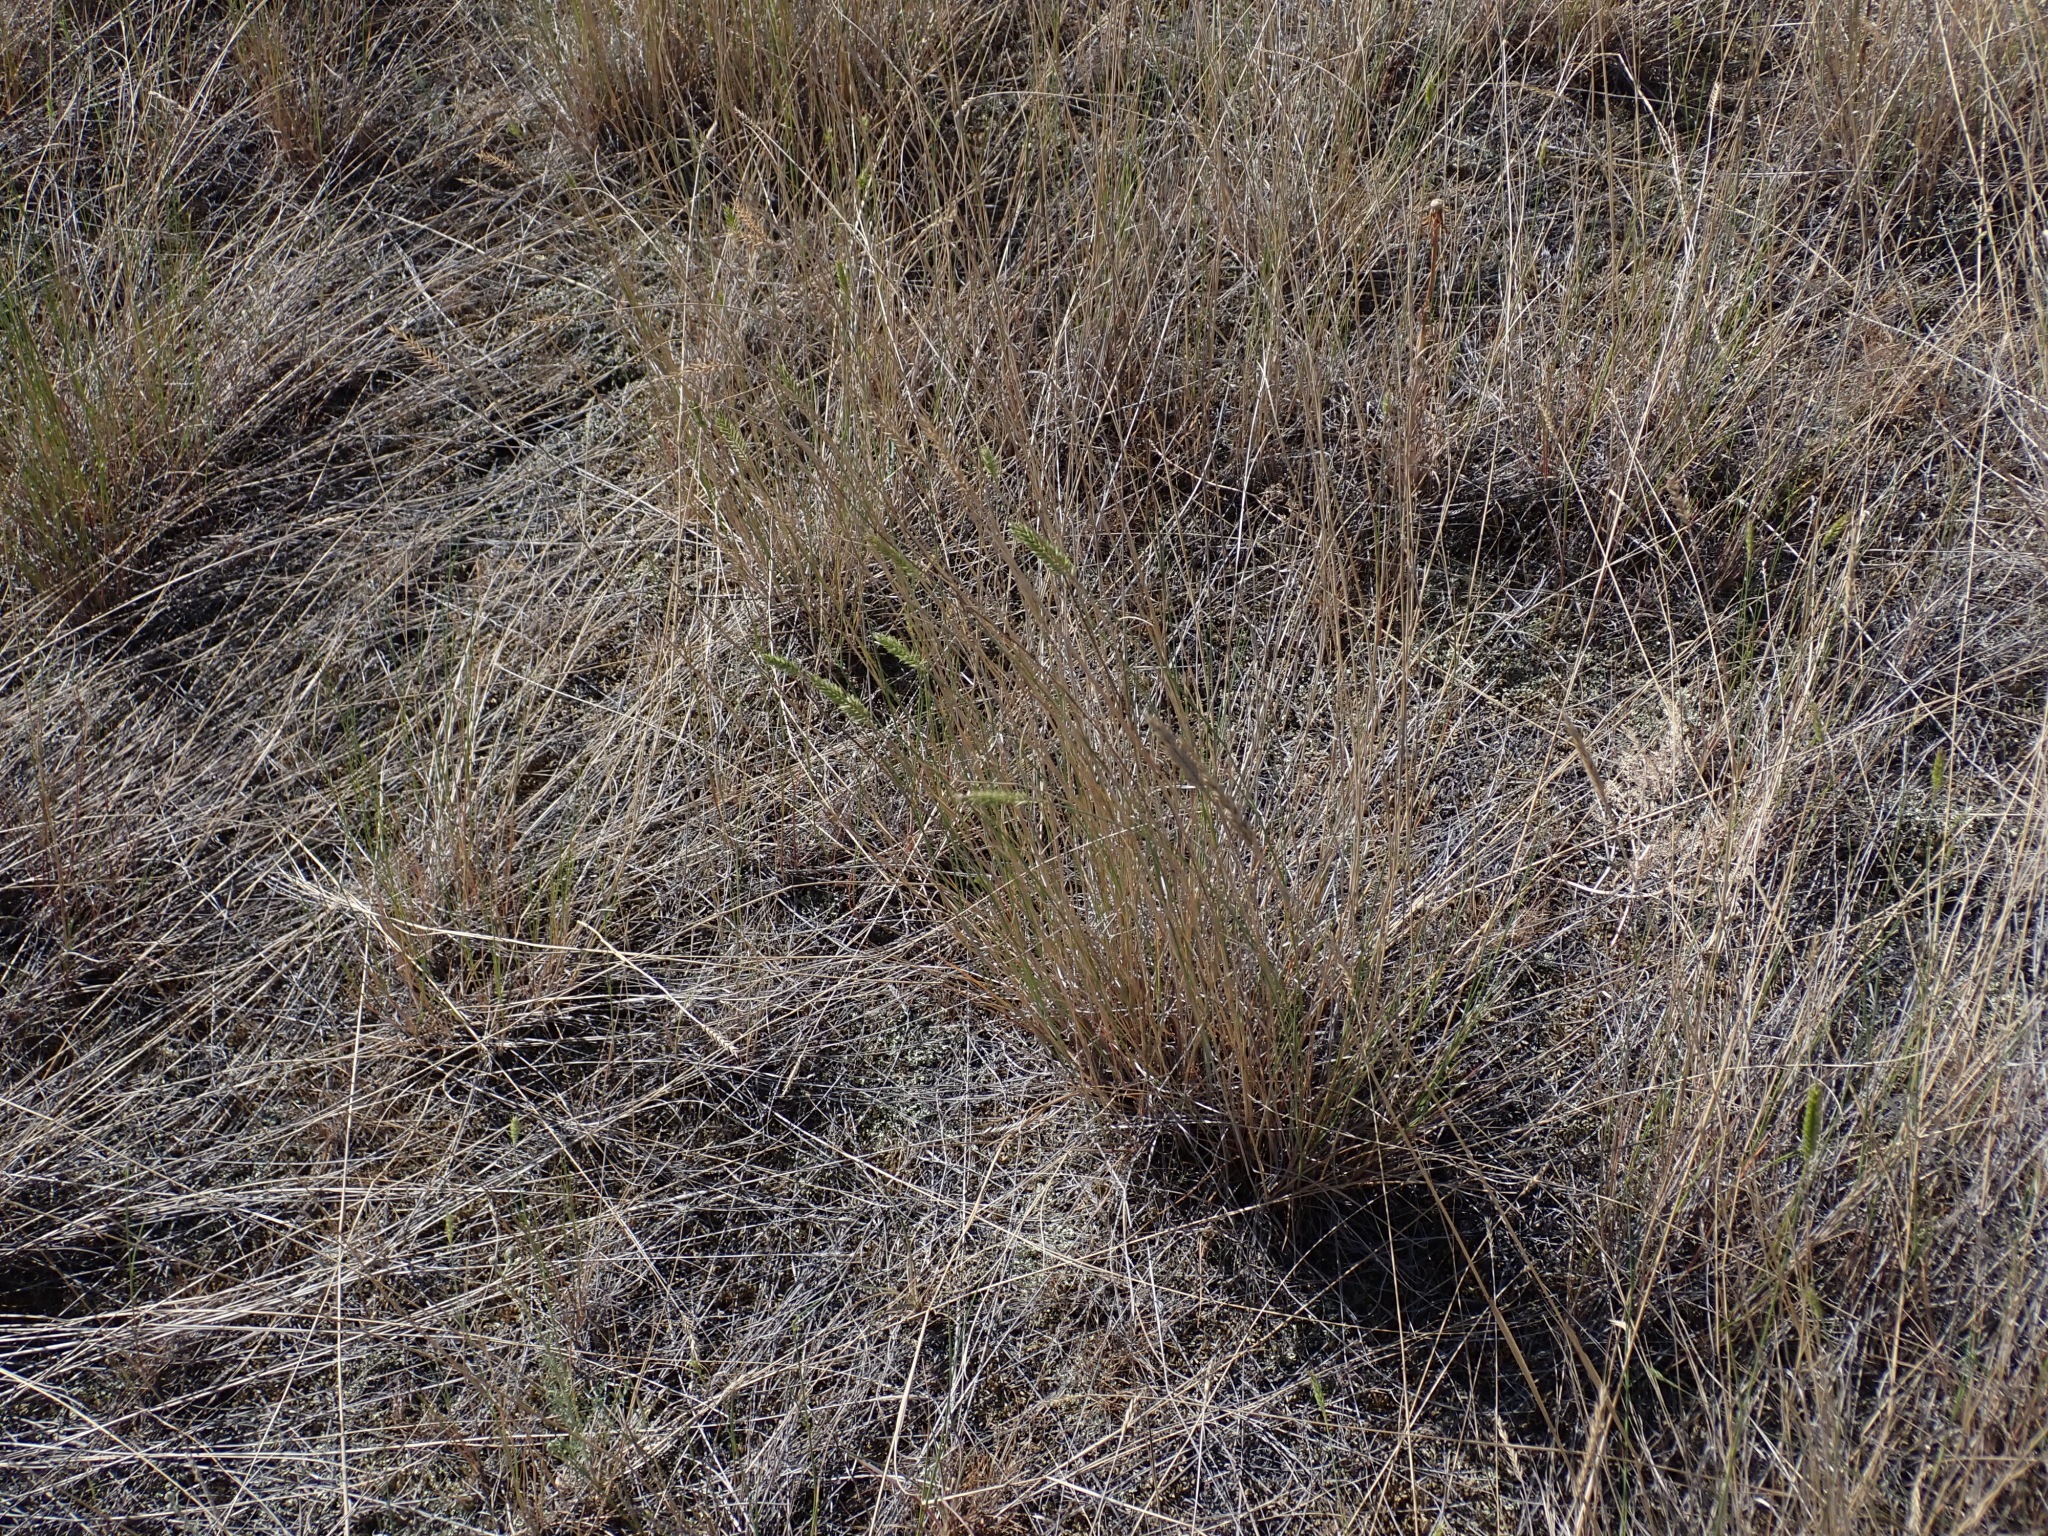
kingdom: Plantae
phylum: Tracheophyta
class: Liliopsida
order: Poales
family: Poaceae
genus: Agropyron
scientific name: Agropyron cristatum
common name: Crested wheatgrass
